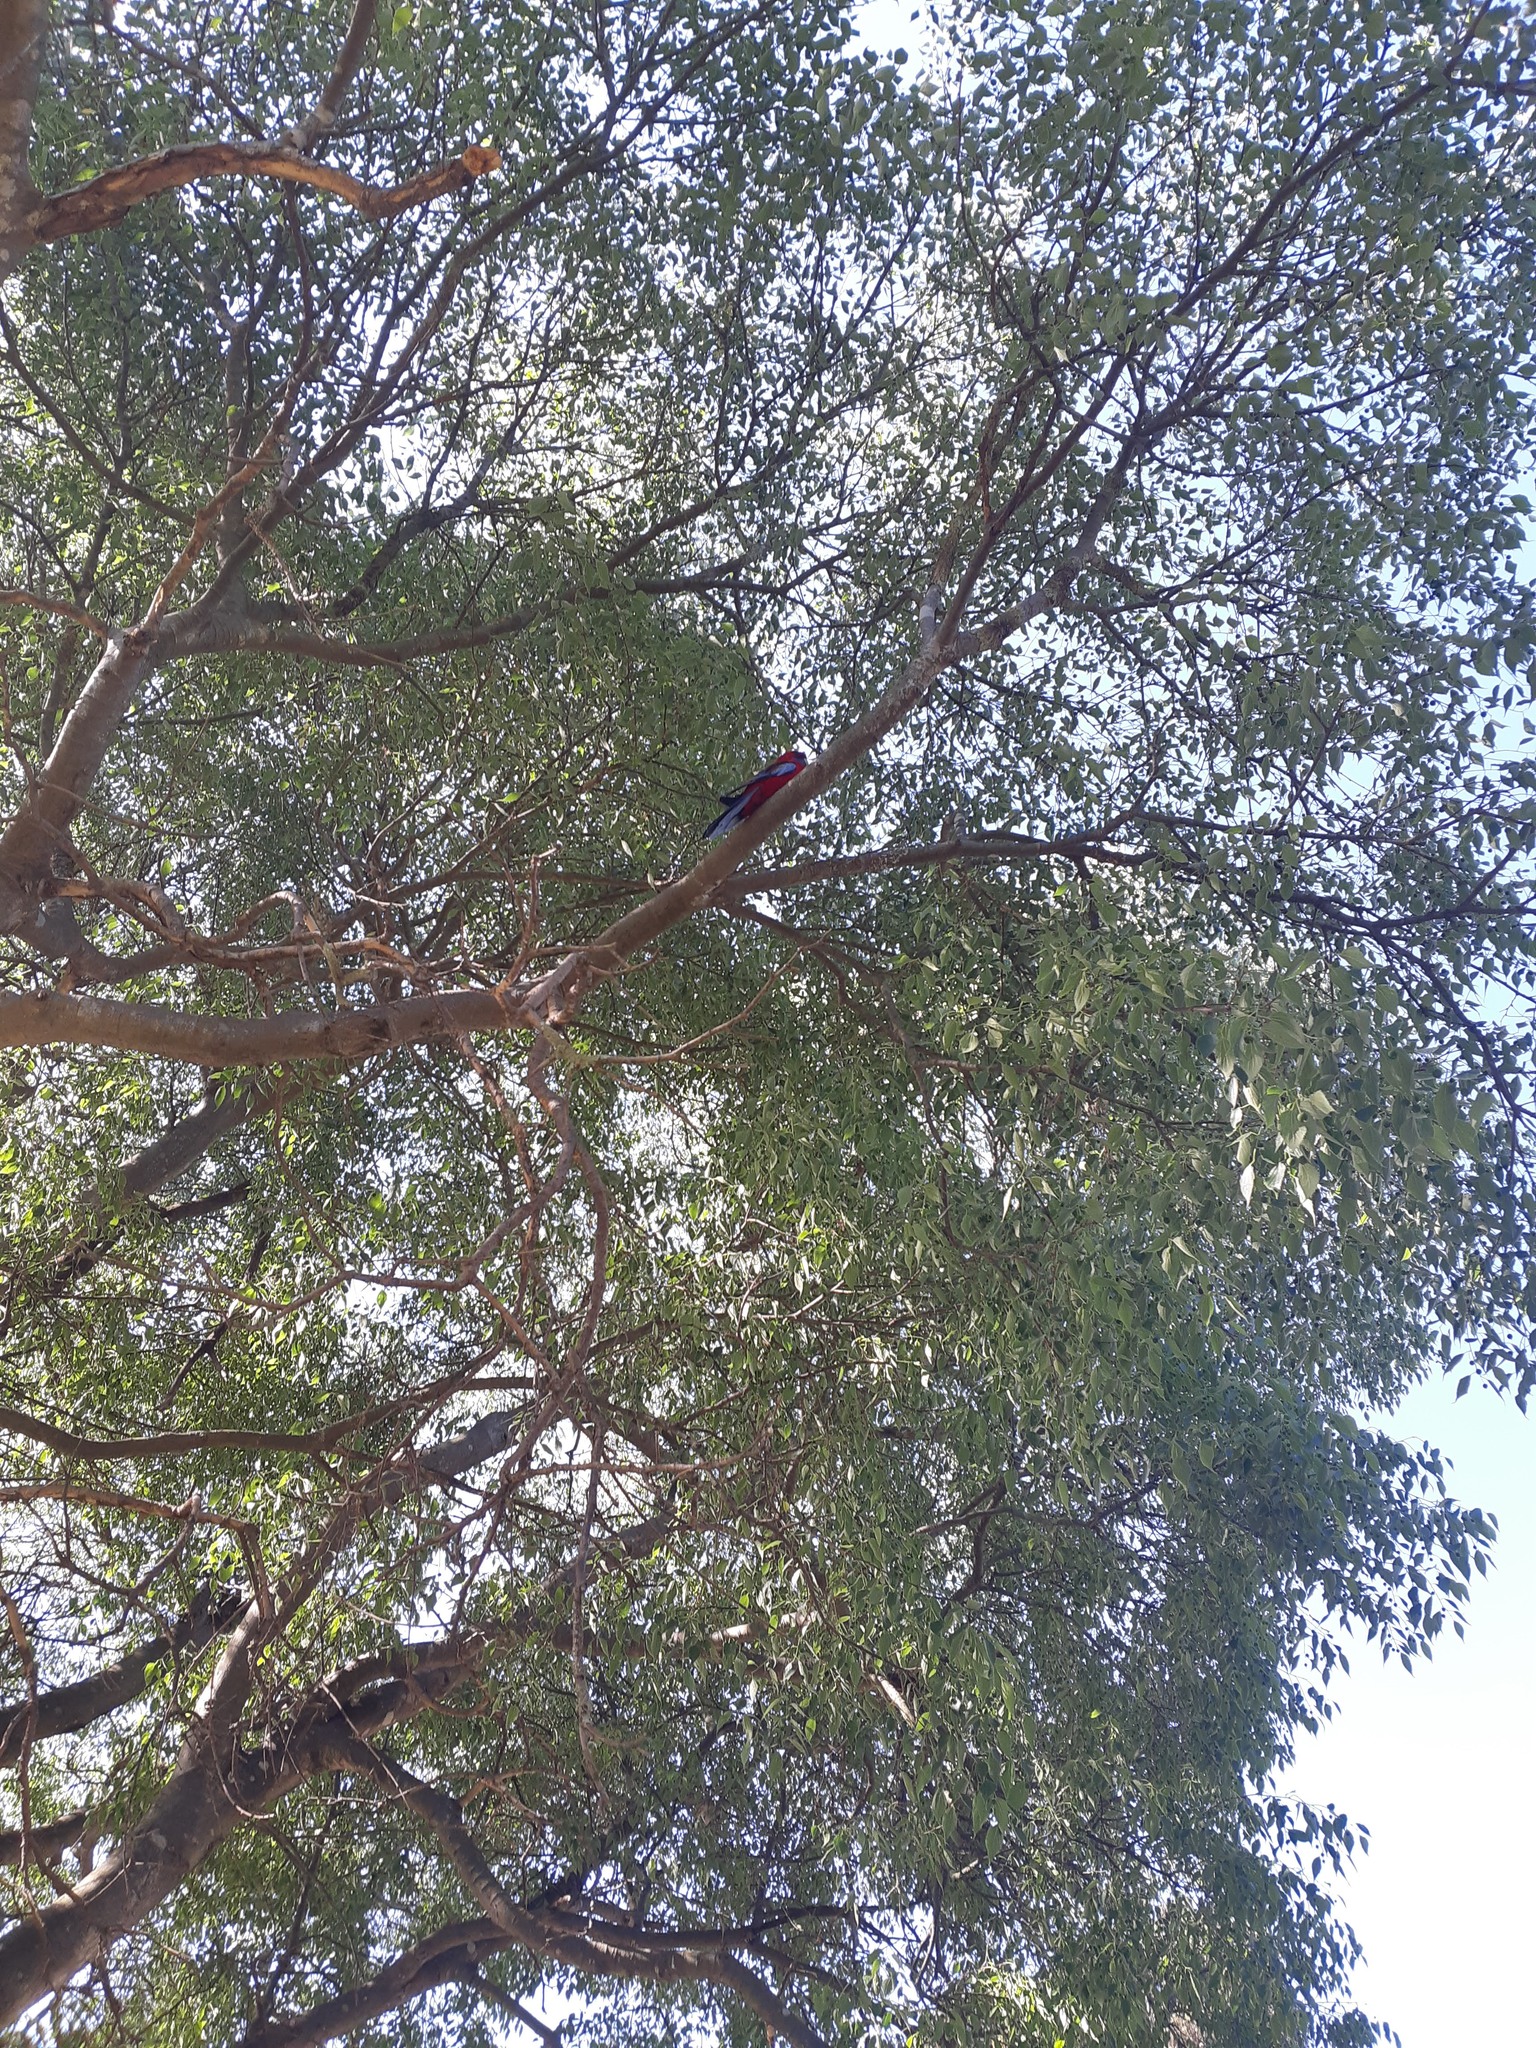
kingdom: Animalia
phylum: Chordata
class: Aves
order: Psittaciformes
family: Psittacidae
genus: Platycercus
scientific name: Platycercus elegans
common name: Crimson rosella
